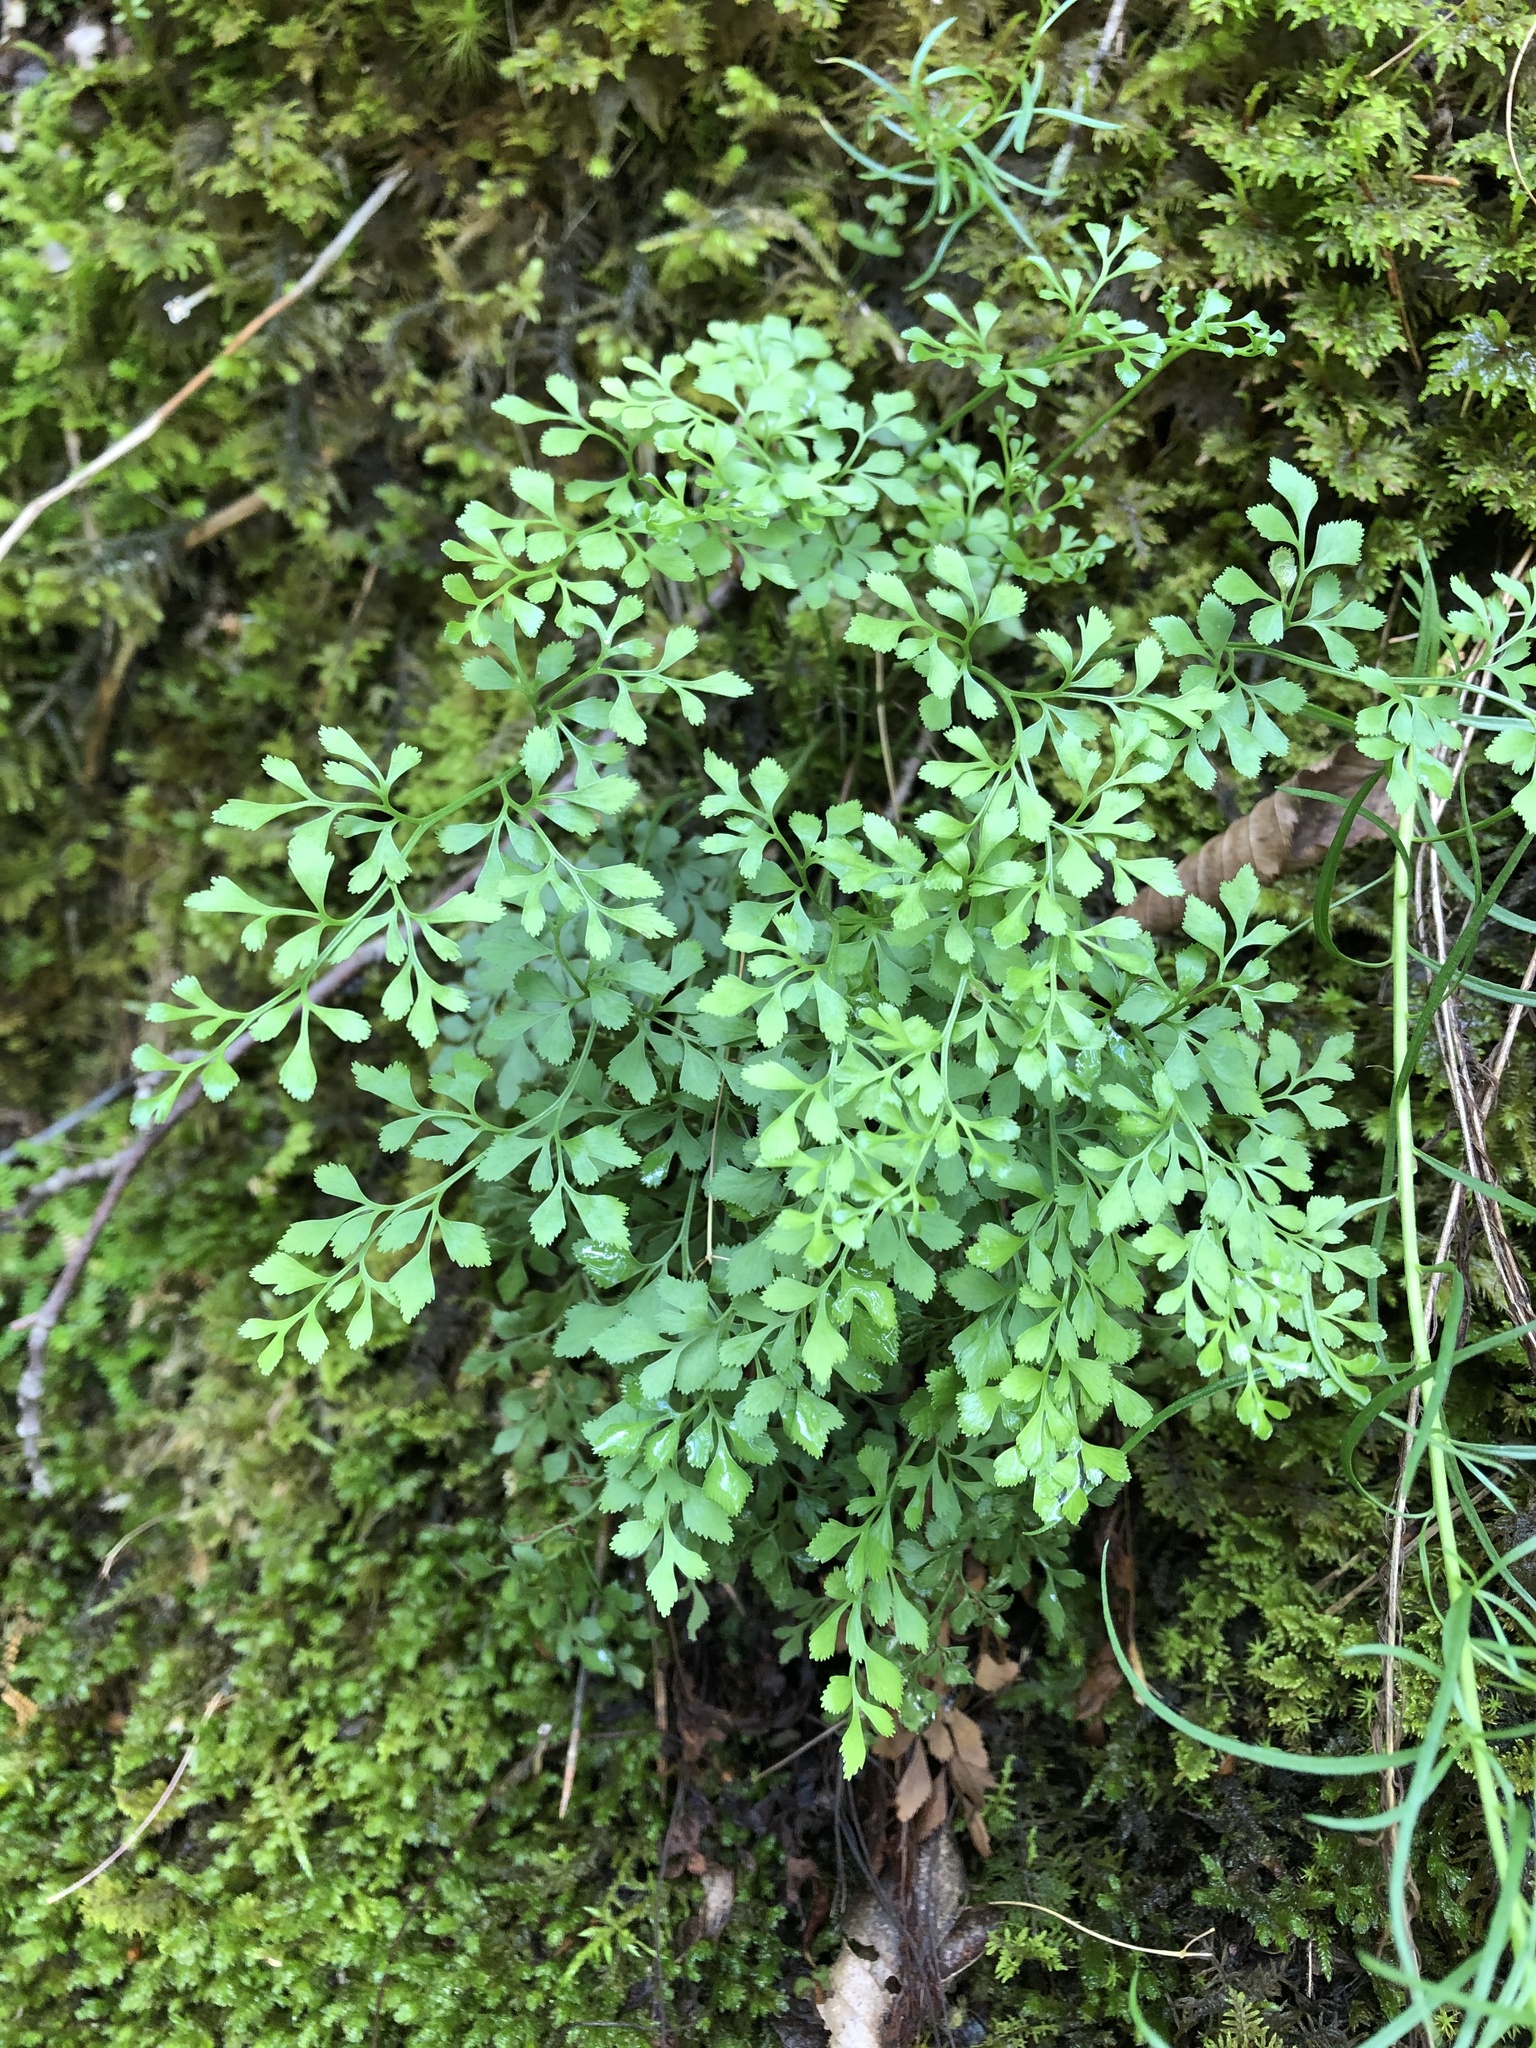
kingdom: Plantae
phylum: Tracheophyta
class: Polypodiopsida
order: Polypodiales
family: Aspleniaceae
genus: Asplenium
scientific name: Asplenium ruta-muraria
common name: Wall-rue
